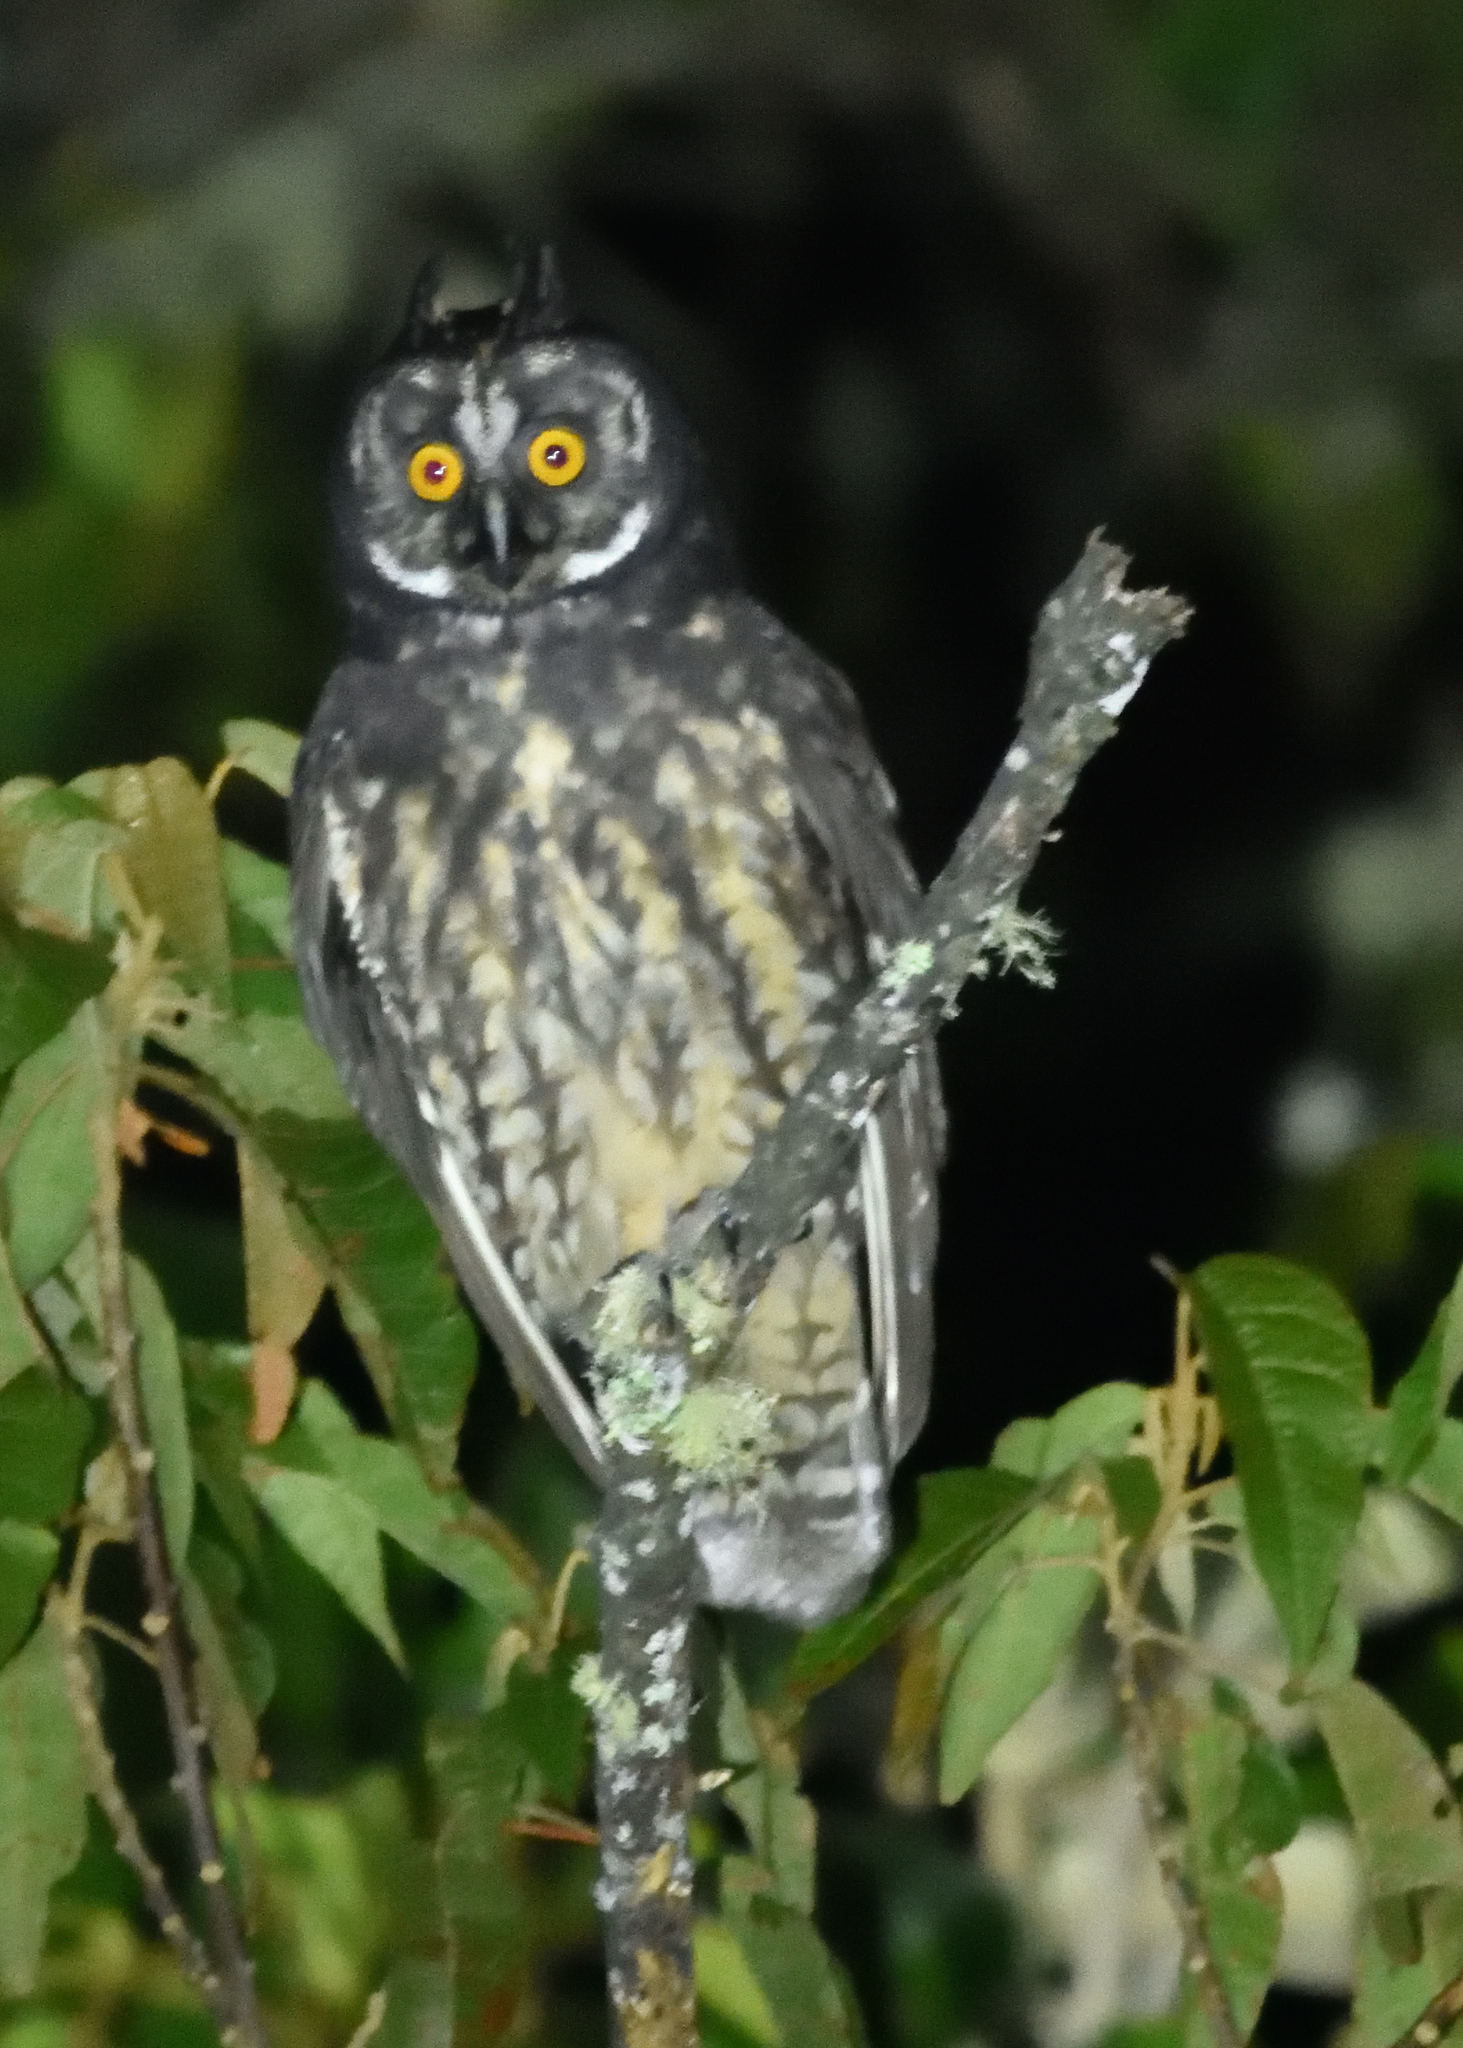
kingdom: Animalia
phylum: Chordata
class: Aves
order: Strigiformes
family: Strigidae
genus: Asio
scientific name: Asio stygius
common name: Stygian owl
